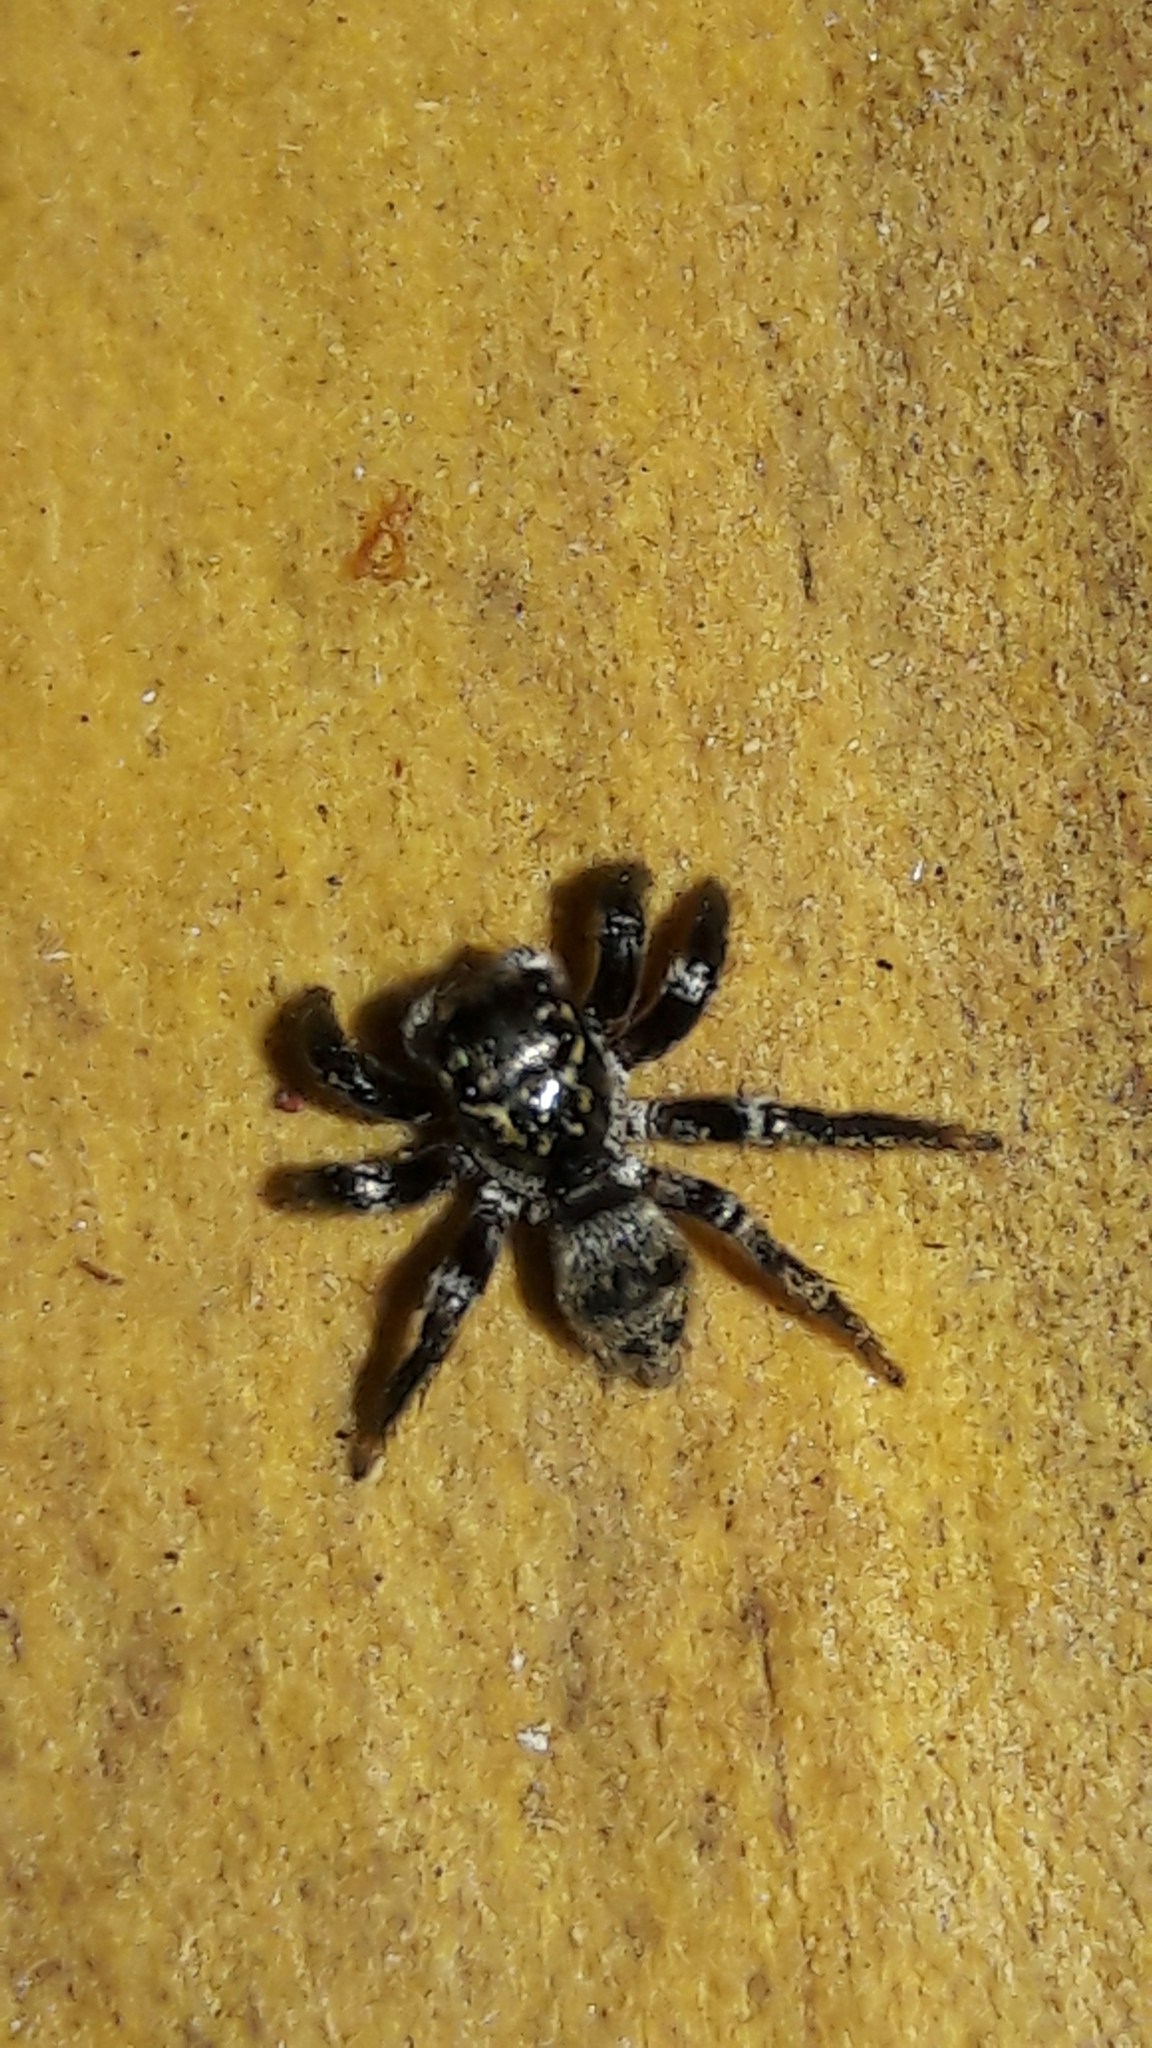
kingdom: Animalia
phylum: Arthropoda
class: Arachnida
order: Araneae
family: Salticidae
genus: Corythalia
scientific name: Corythalia conferta
